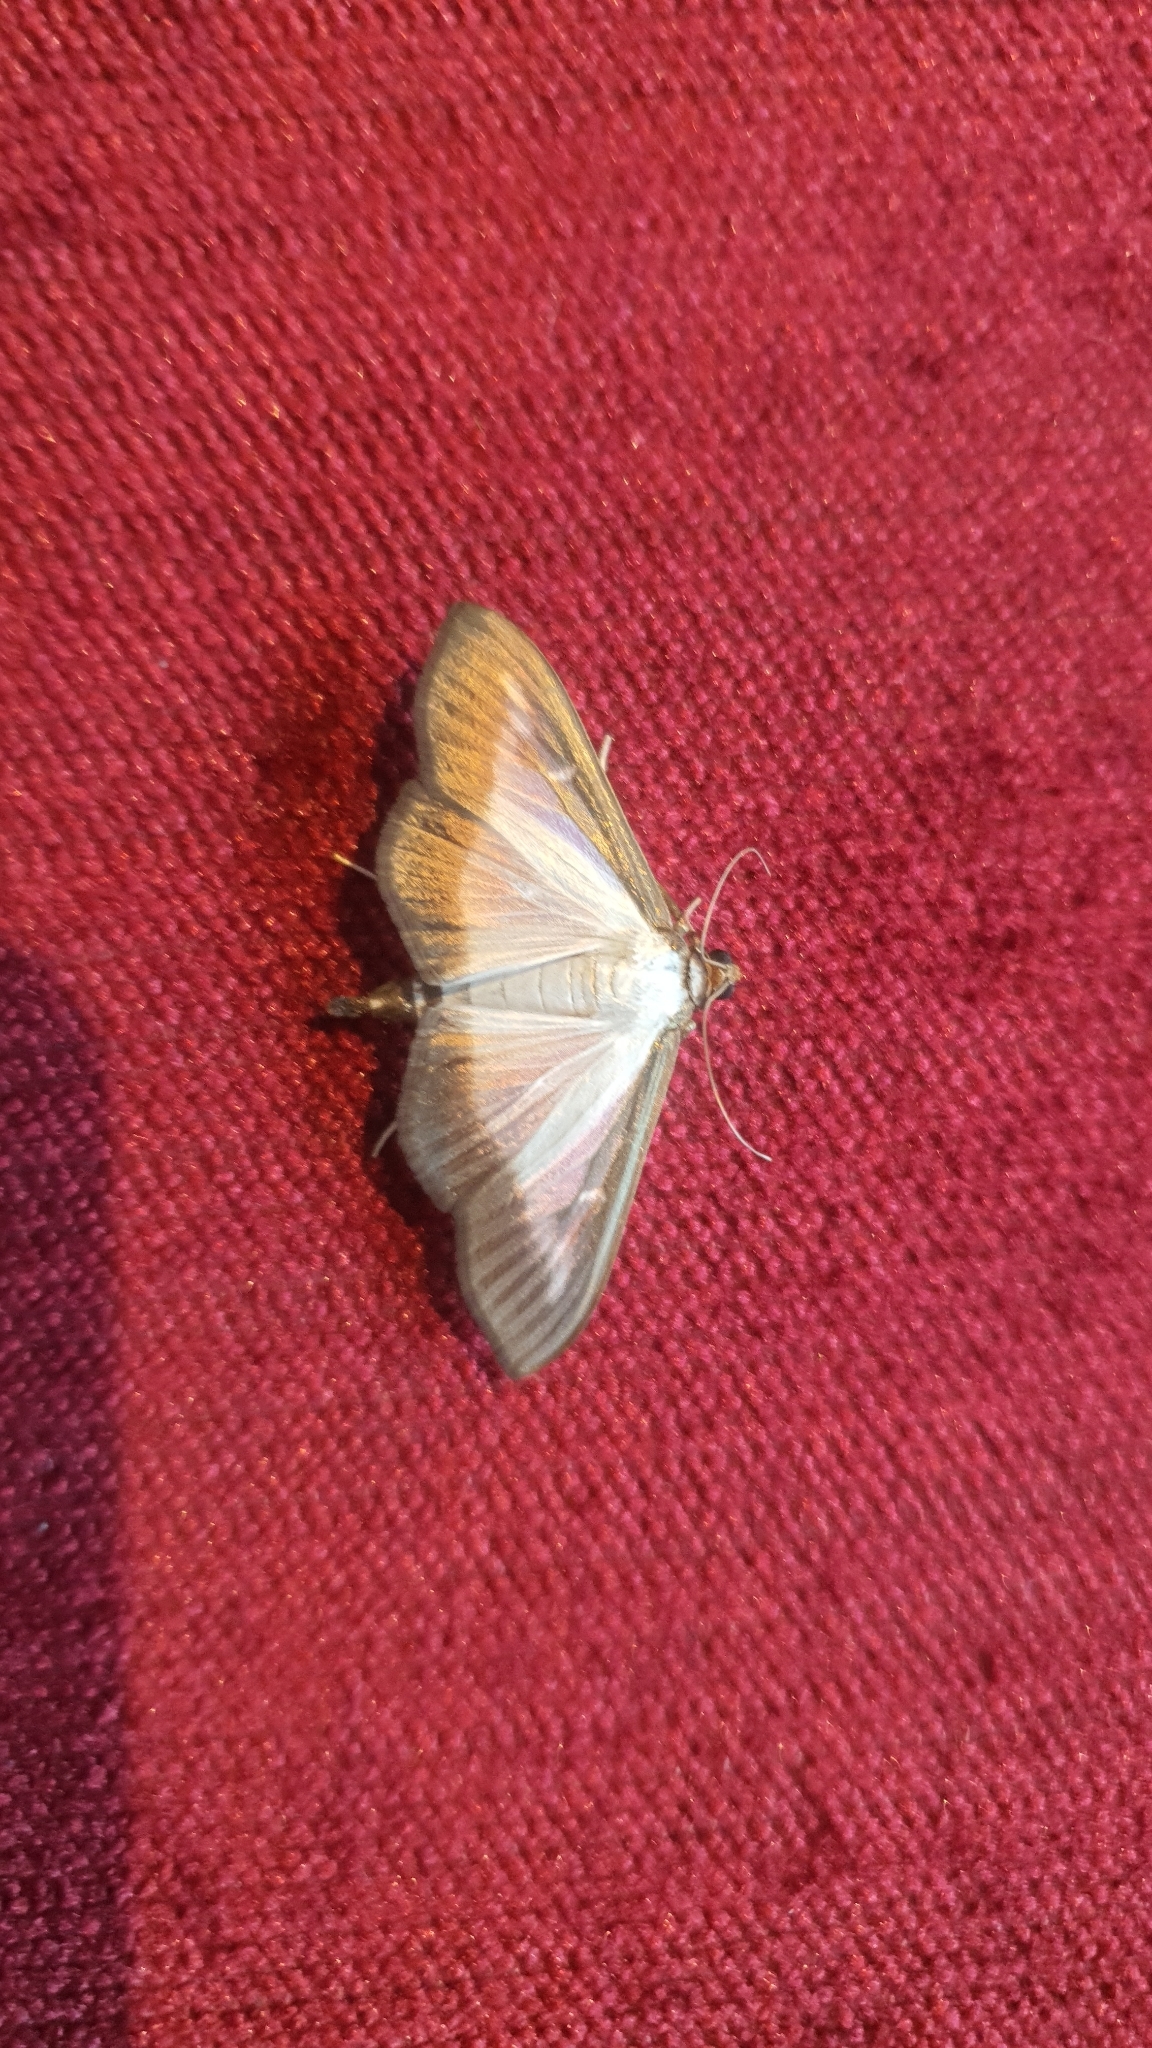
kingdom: Animalia
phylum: Arthropoda
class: Insecta
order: Lepidoptera
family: Crambidae
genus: Cydalima
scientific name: Cydalima perspectalis
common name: Box tree moth
